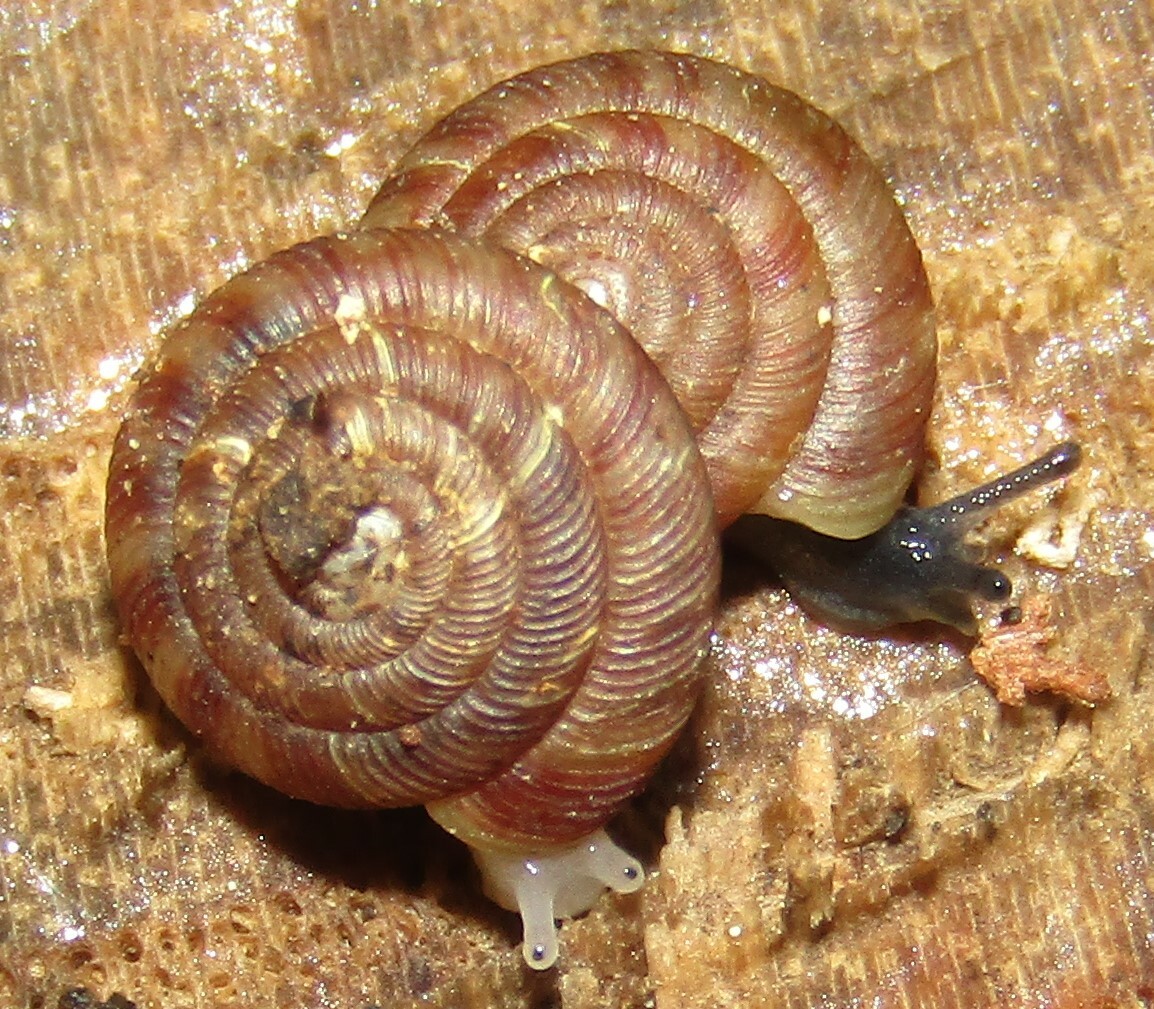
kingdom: Animalia
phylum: Mollusca
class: Gastropoda
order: Stylommatophora
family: Discidae
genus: Discus
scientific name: Discus rotundatus
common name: Rounded snail
